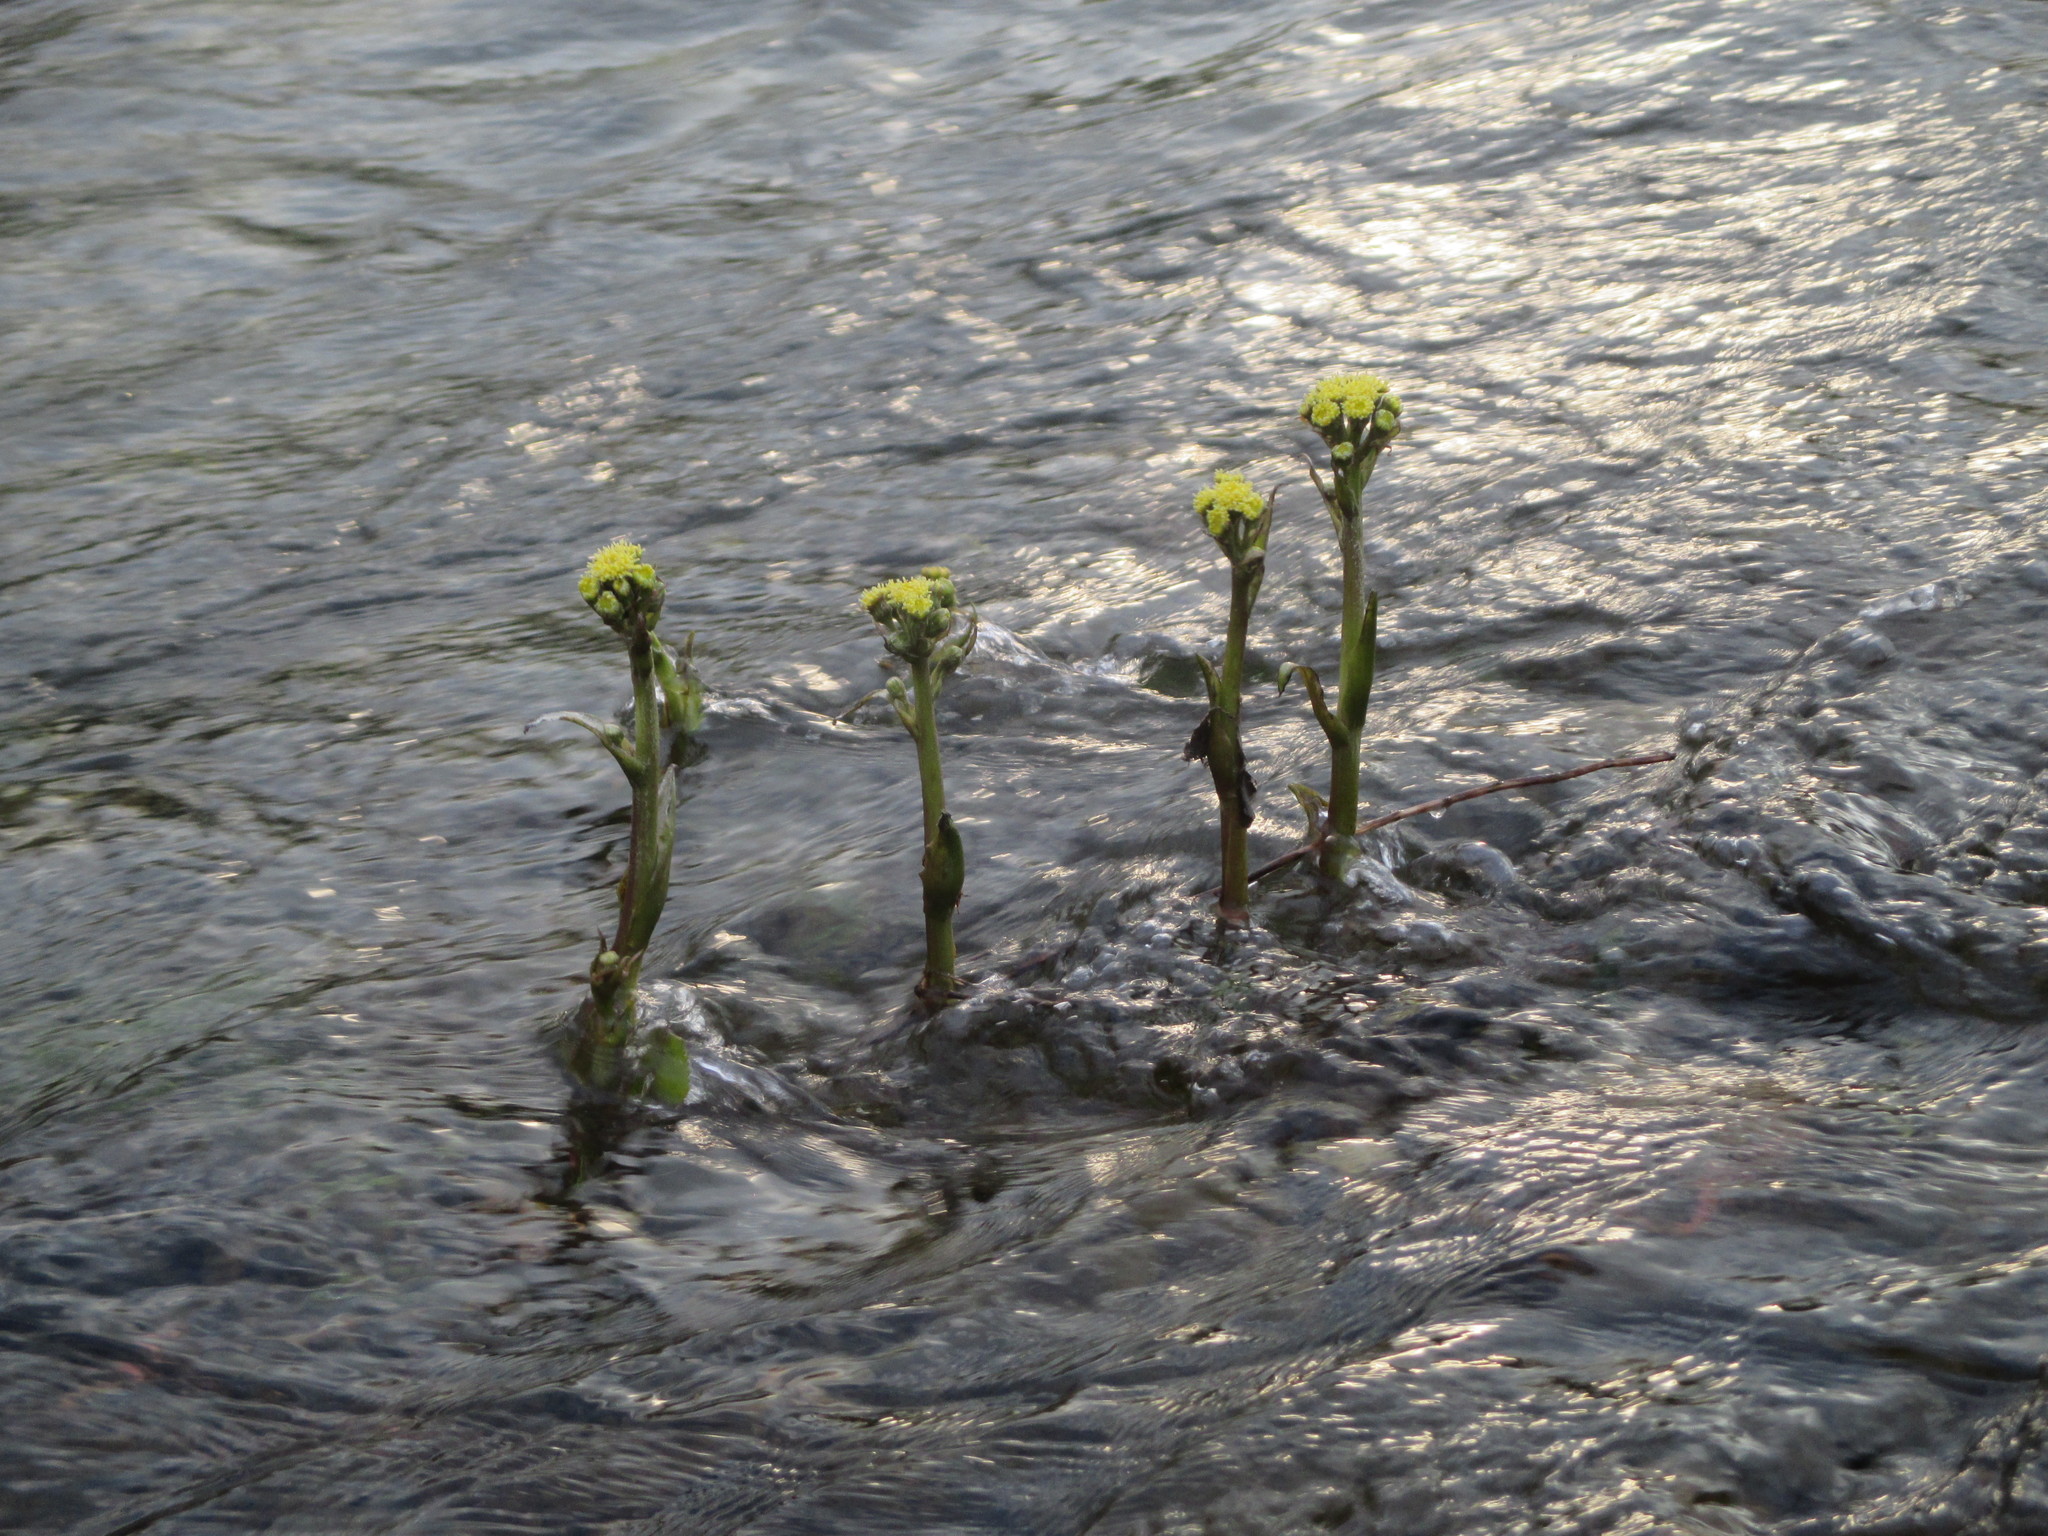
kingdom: Plantae
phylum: Tracheophyta
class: Magnoliopsida
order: Asterales
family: Asteraceae
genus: Petasites
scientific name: Petasites spurius
